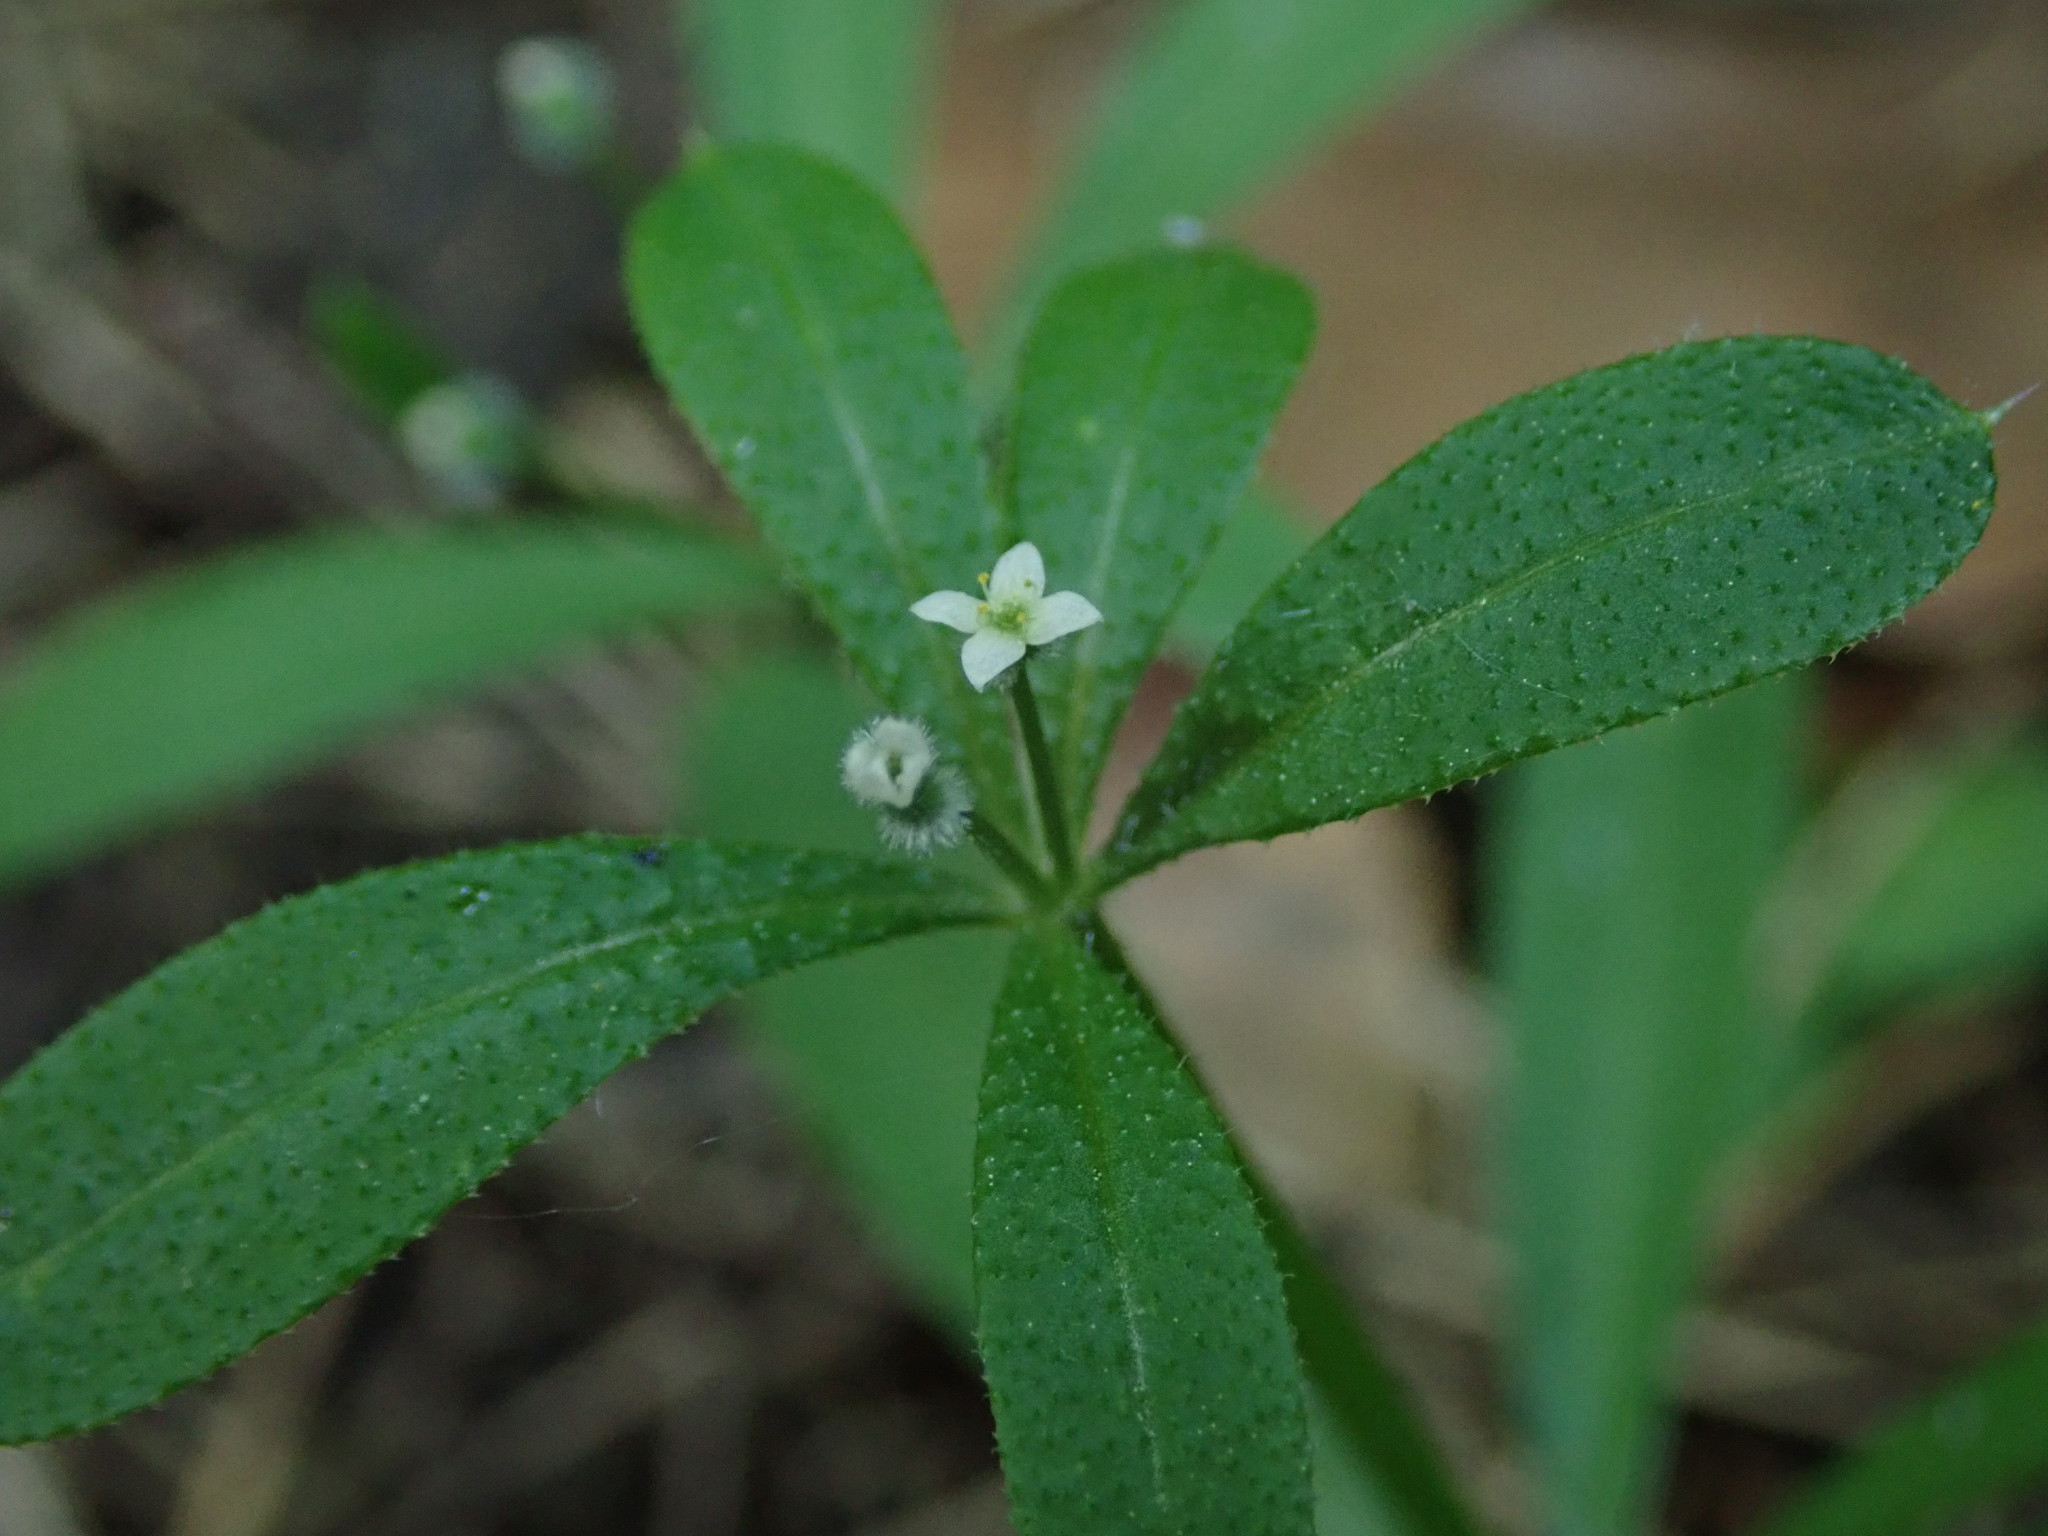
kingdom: Plantae
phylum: Tracheophyta
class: Magnoliopsida
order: Gentianales
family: Rubiaceae
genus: Galium
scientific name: Galium aparine
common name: Cleavers
